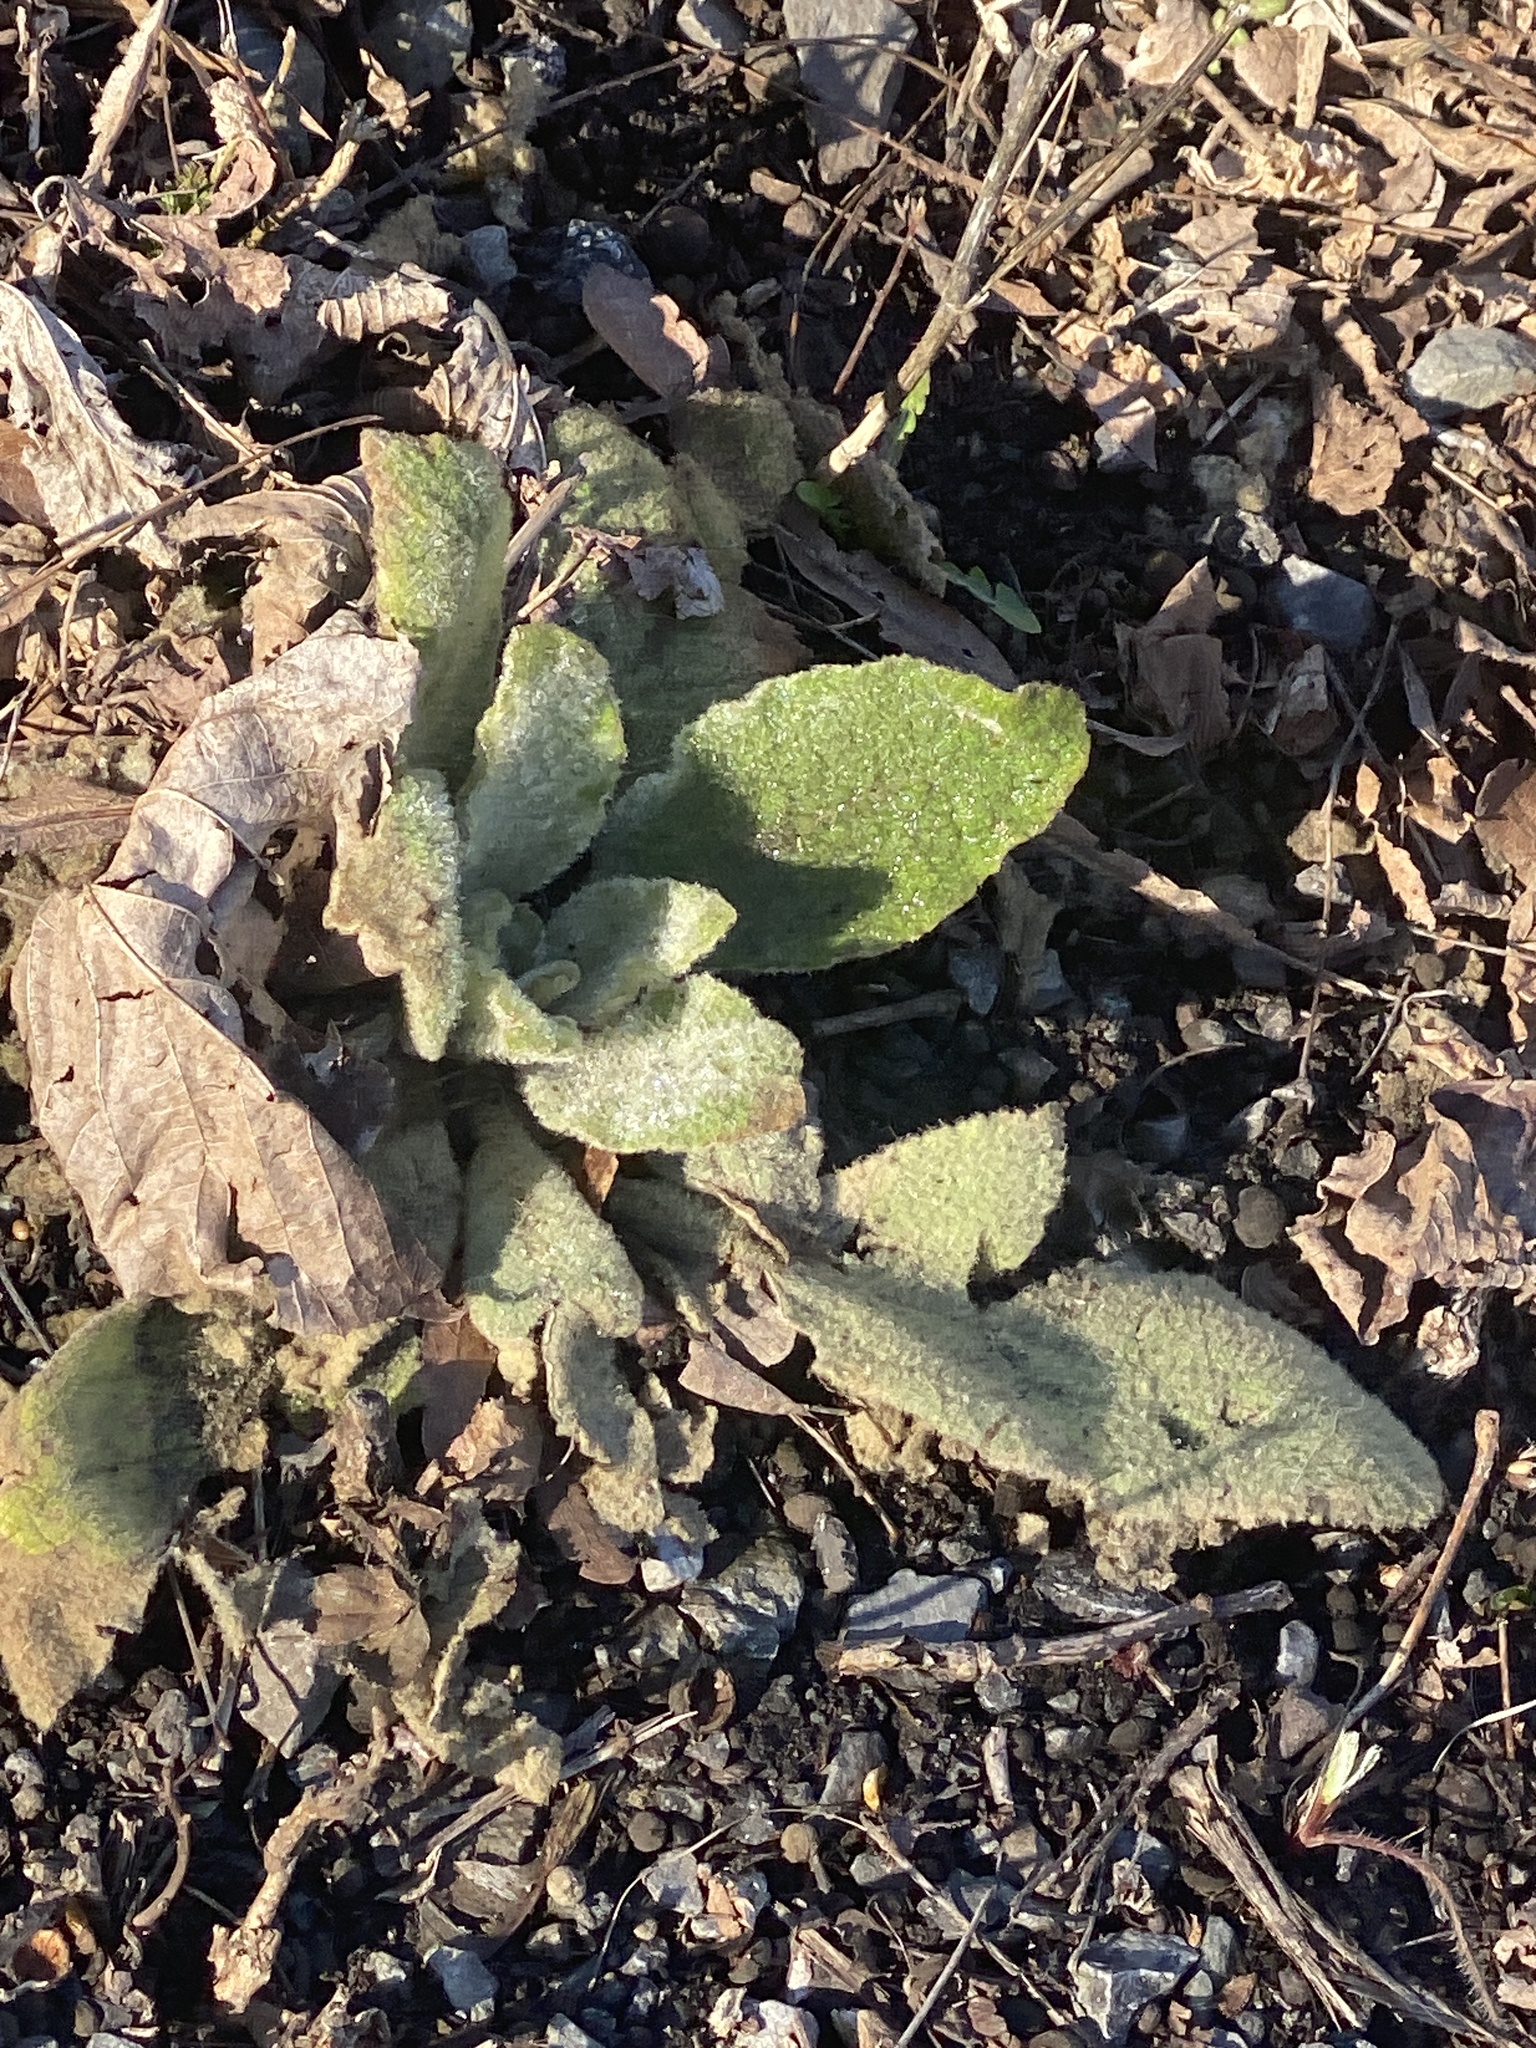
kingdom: Plantae
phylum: Tracheophyta
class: Magnoliopsida
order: Lamiales
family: Scrophulariaceae
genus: Verbascum
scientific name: Verbascum thapsus
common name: Common mullein
